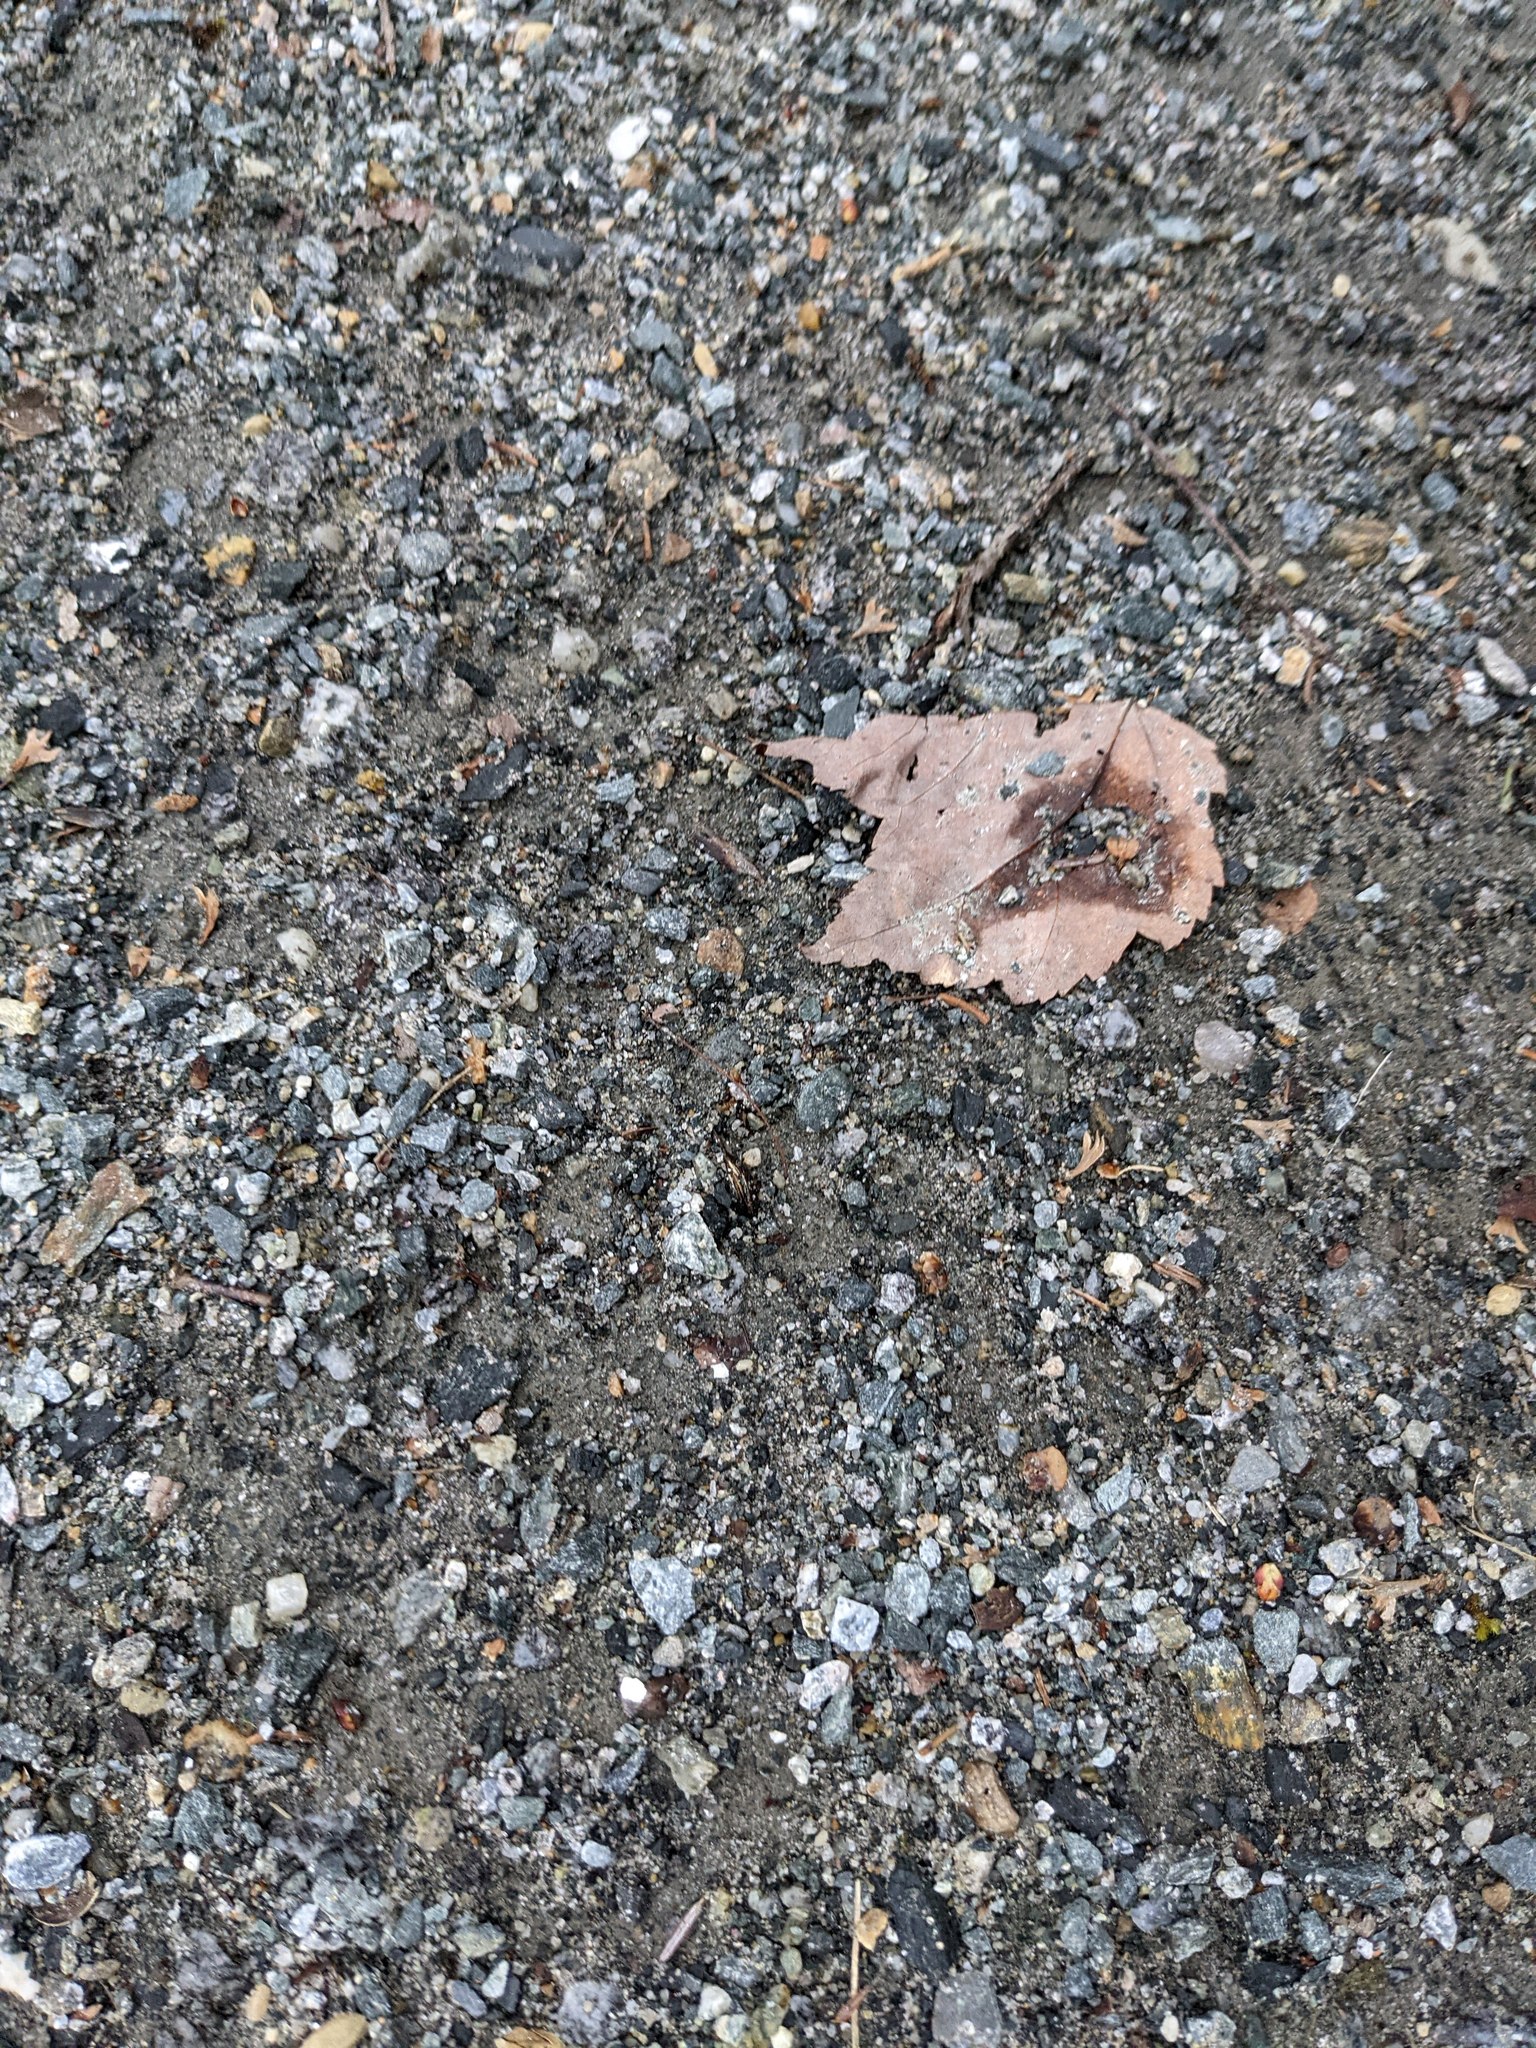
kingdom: Plantae
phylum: Tracheophyta
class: Magnoliopsida
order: Sapindales
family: Sapindaceae
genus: Acer
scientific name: Acer rubrum
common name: Red maple
